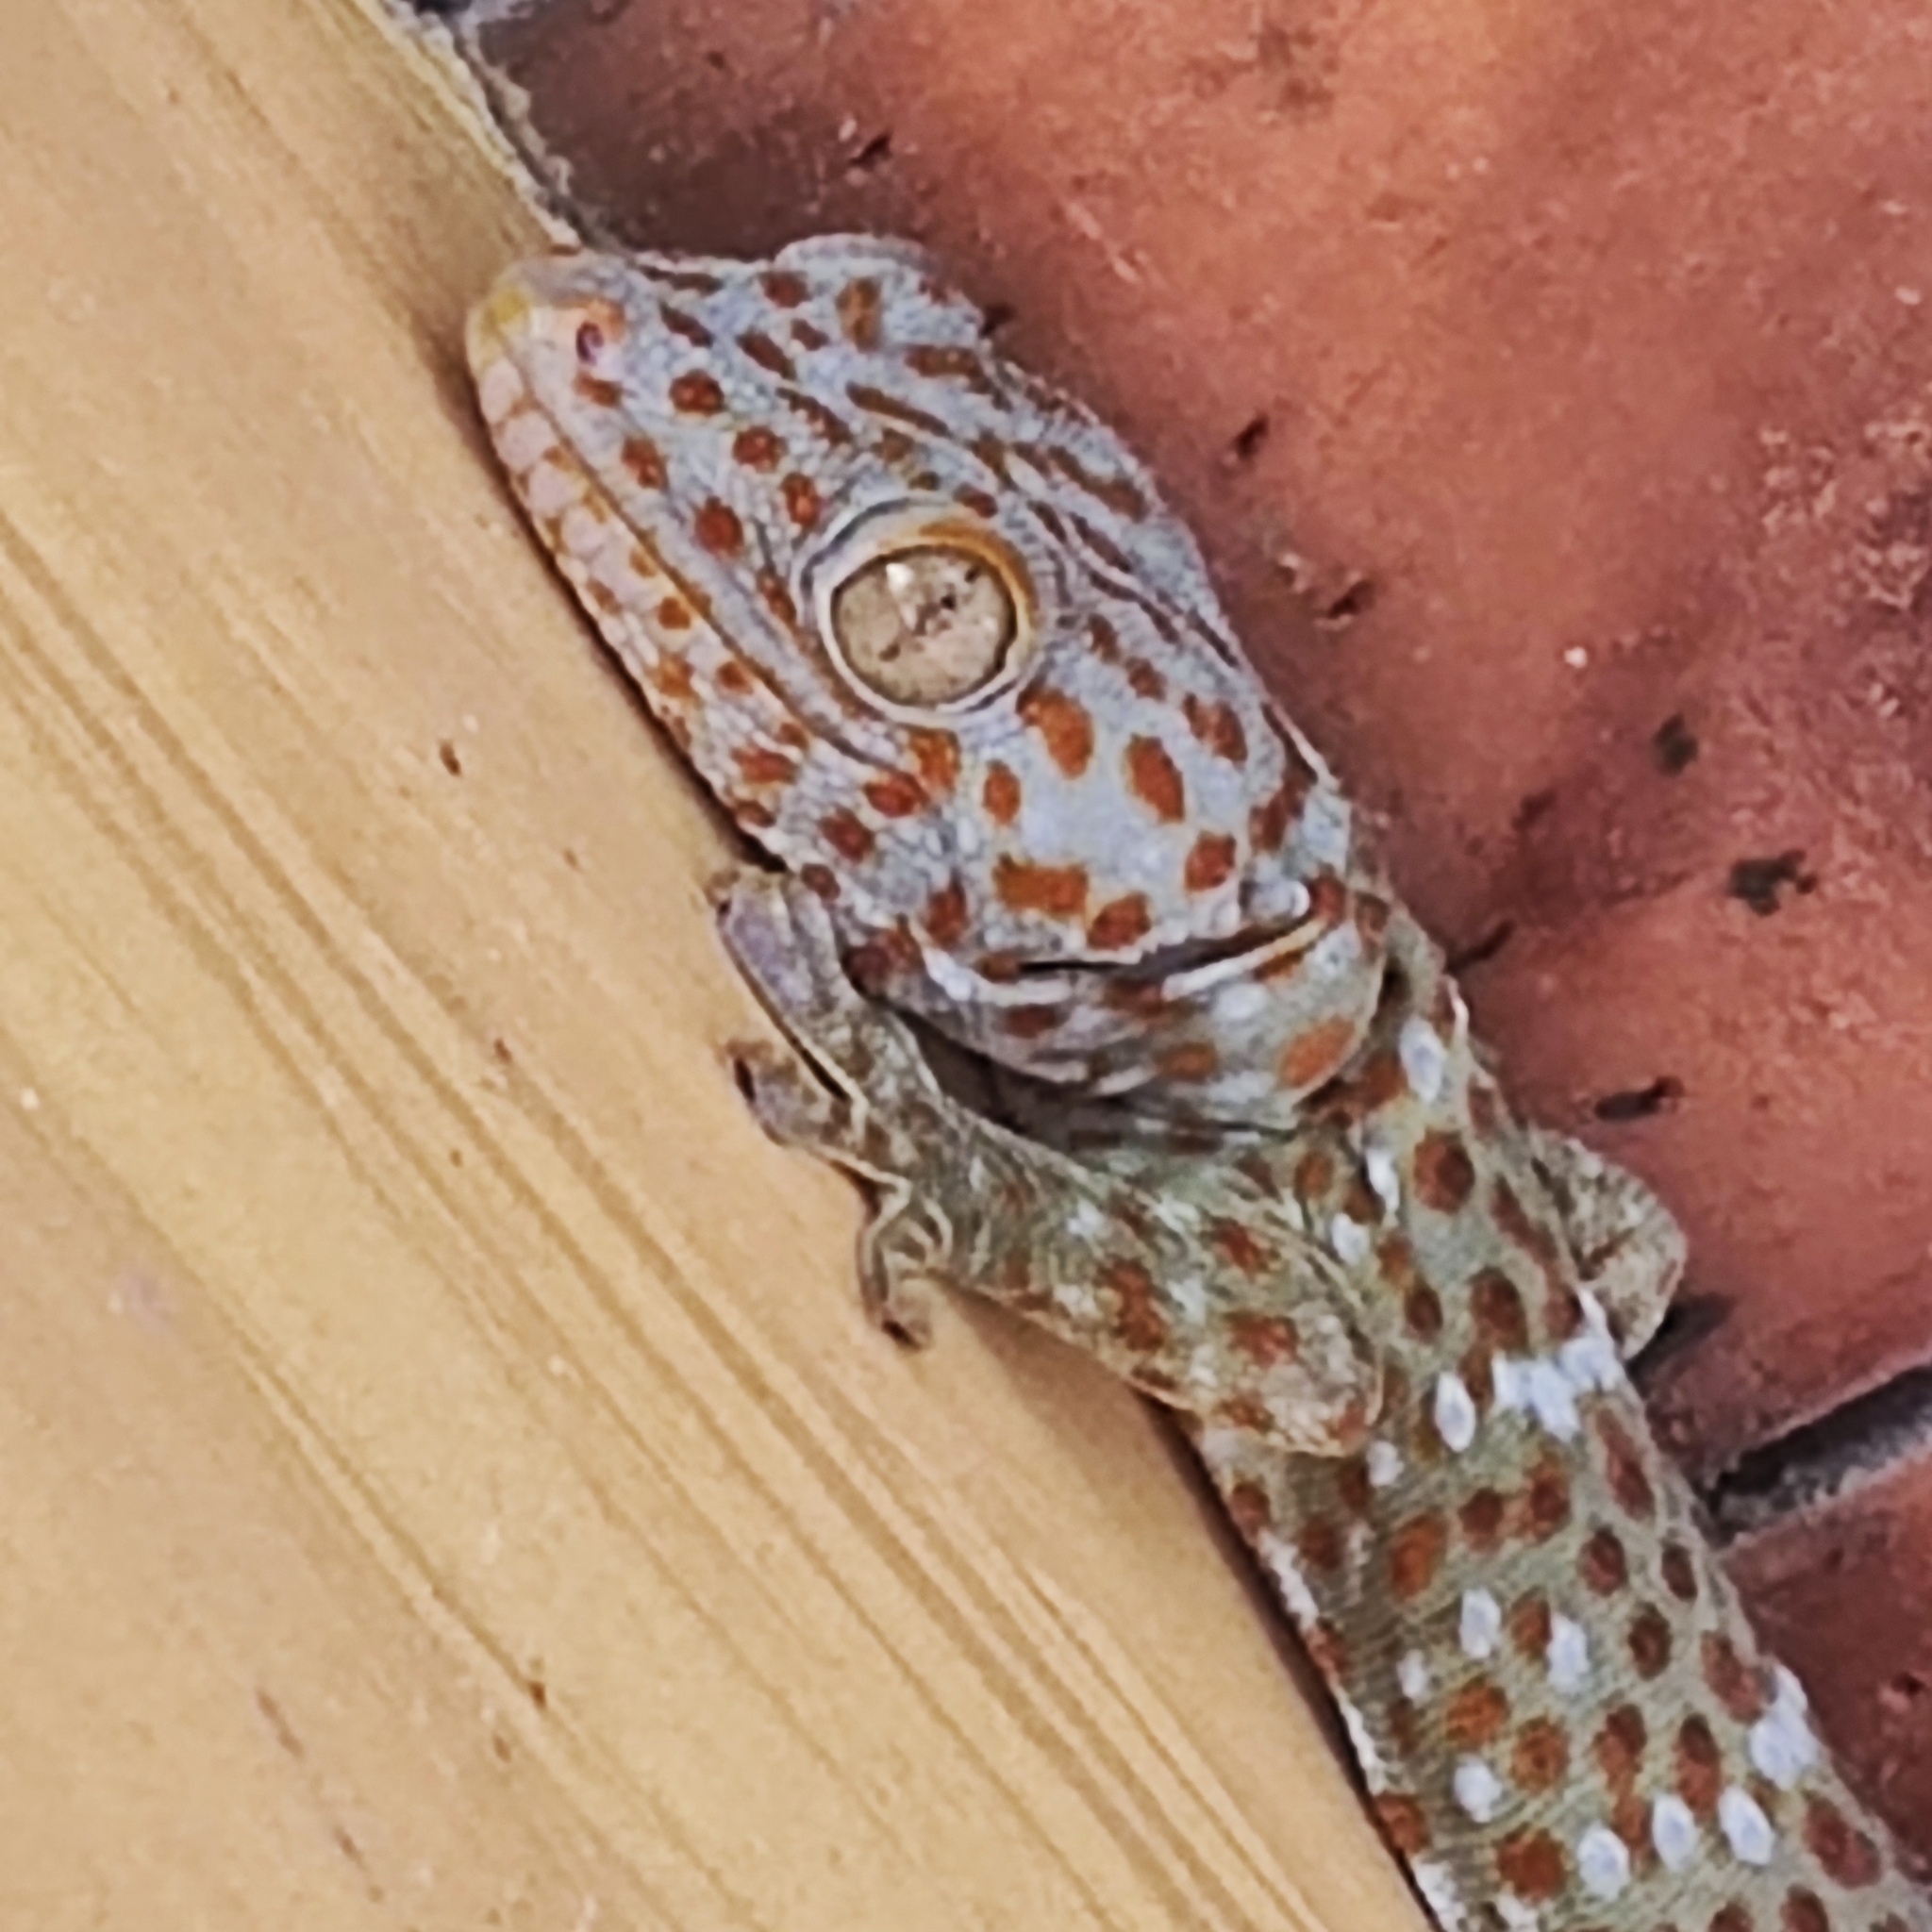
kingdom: Animalia
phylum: Chordata
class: Squamata
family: Gekkonidae
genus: Gekko
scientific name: Gekko gecko
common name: Tokay gecko
